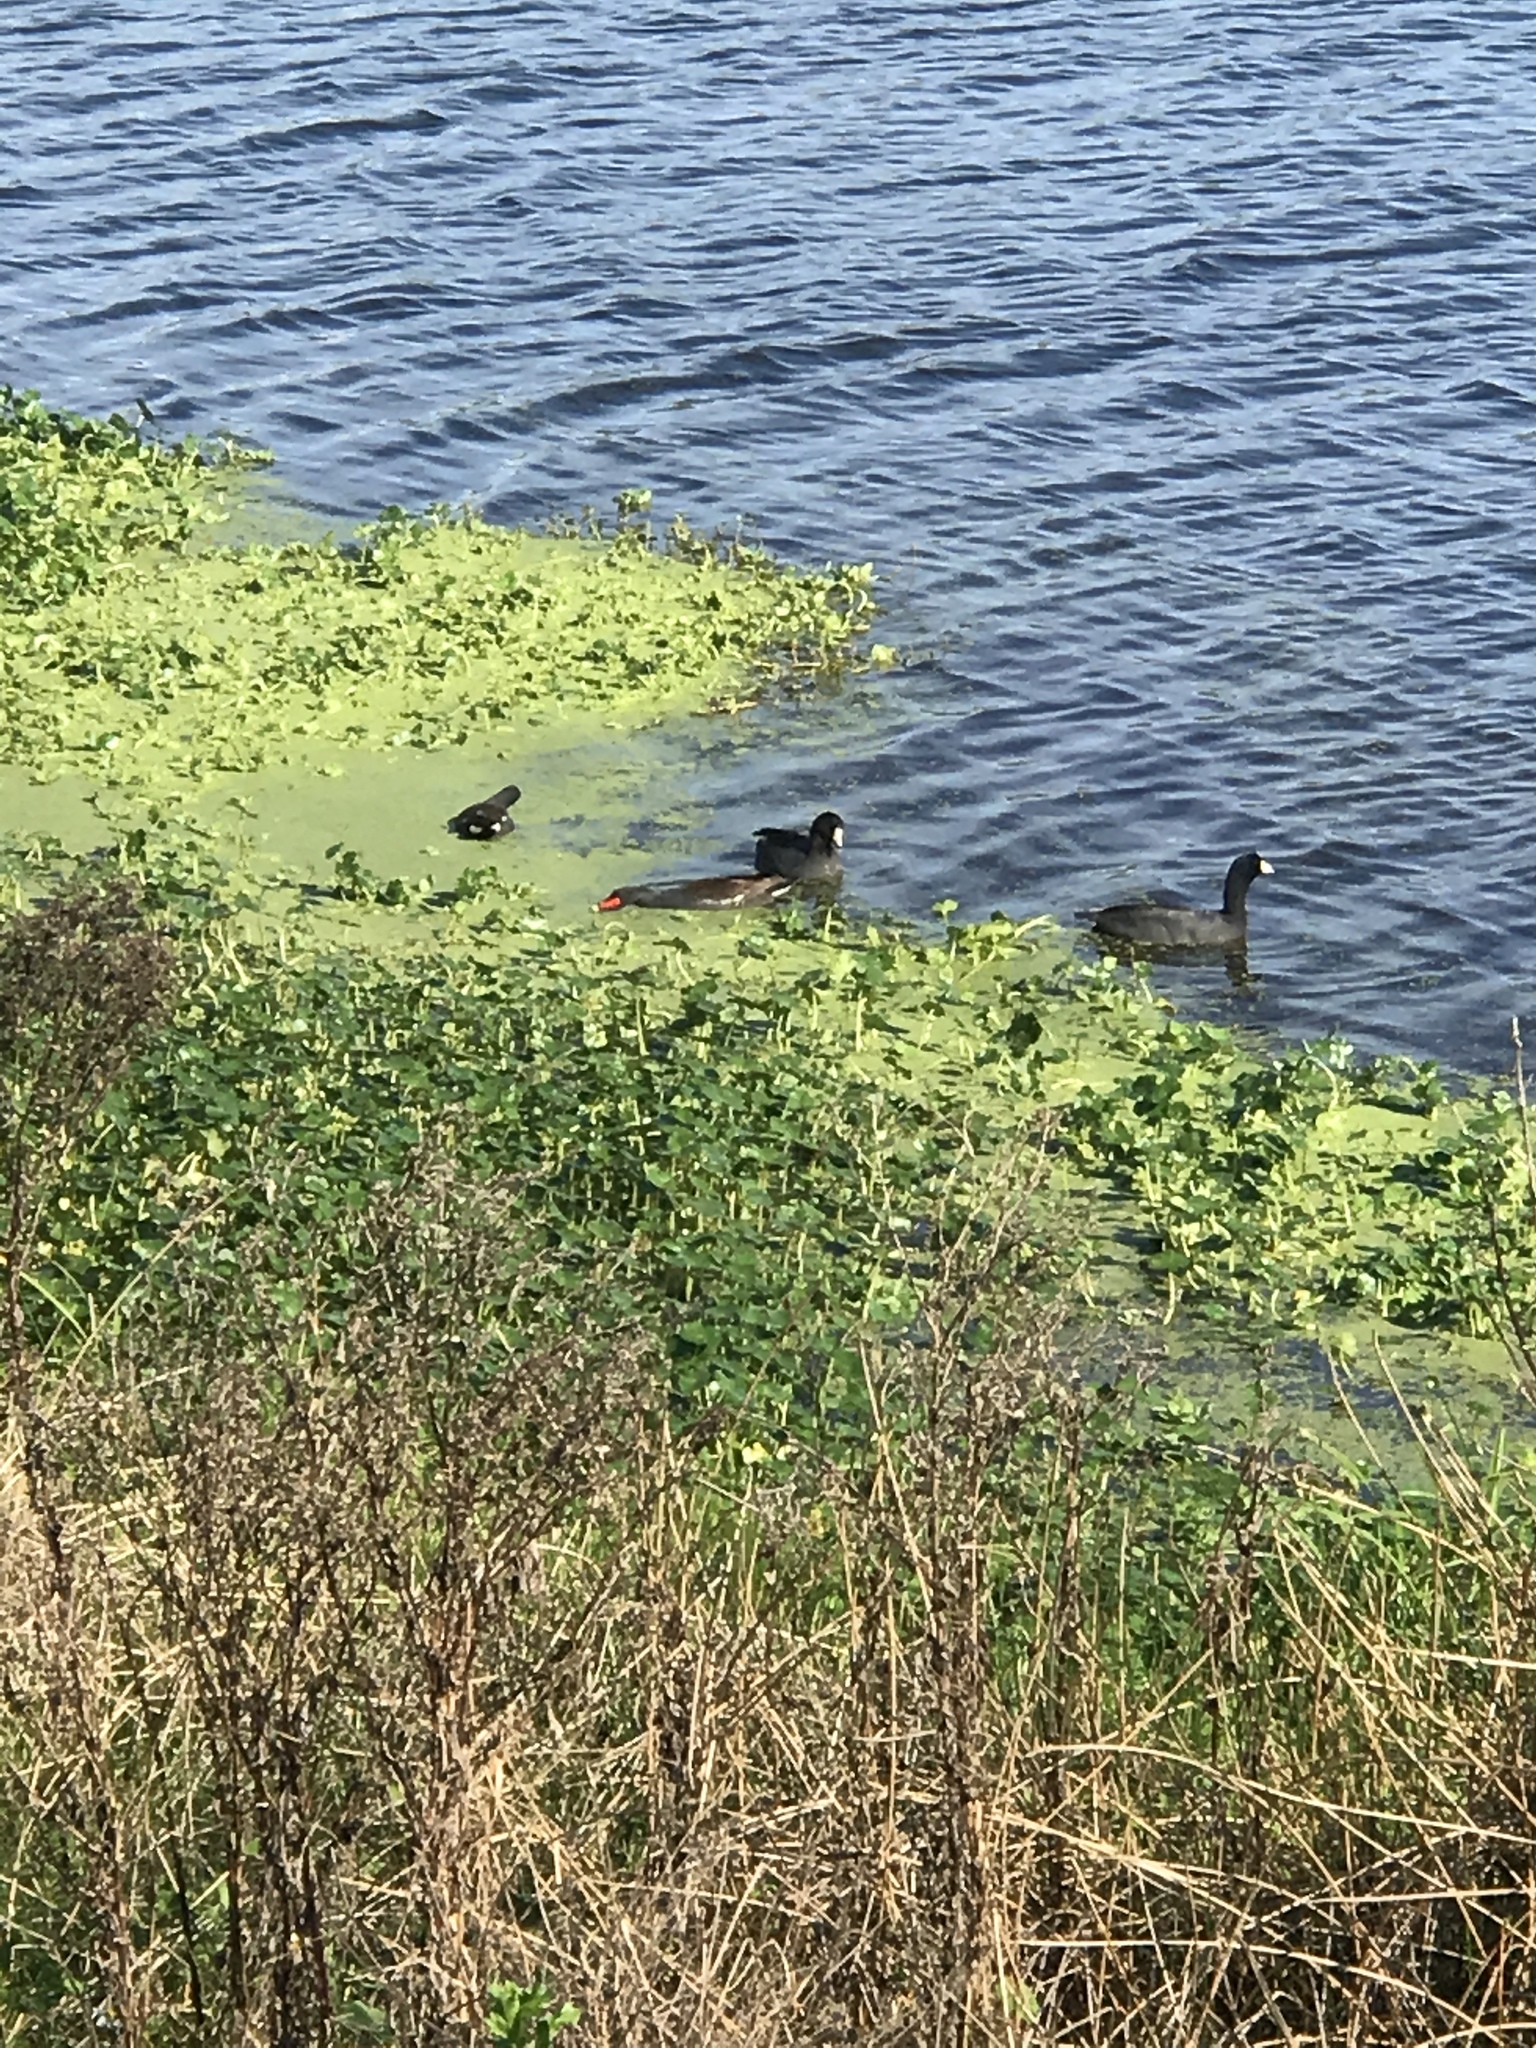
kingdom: Animalia
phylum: Chordata
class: Aves
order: Gruiformes
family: Rallidae
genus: Fulica
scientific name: Fulica americana
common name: American coot
